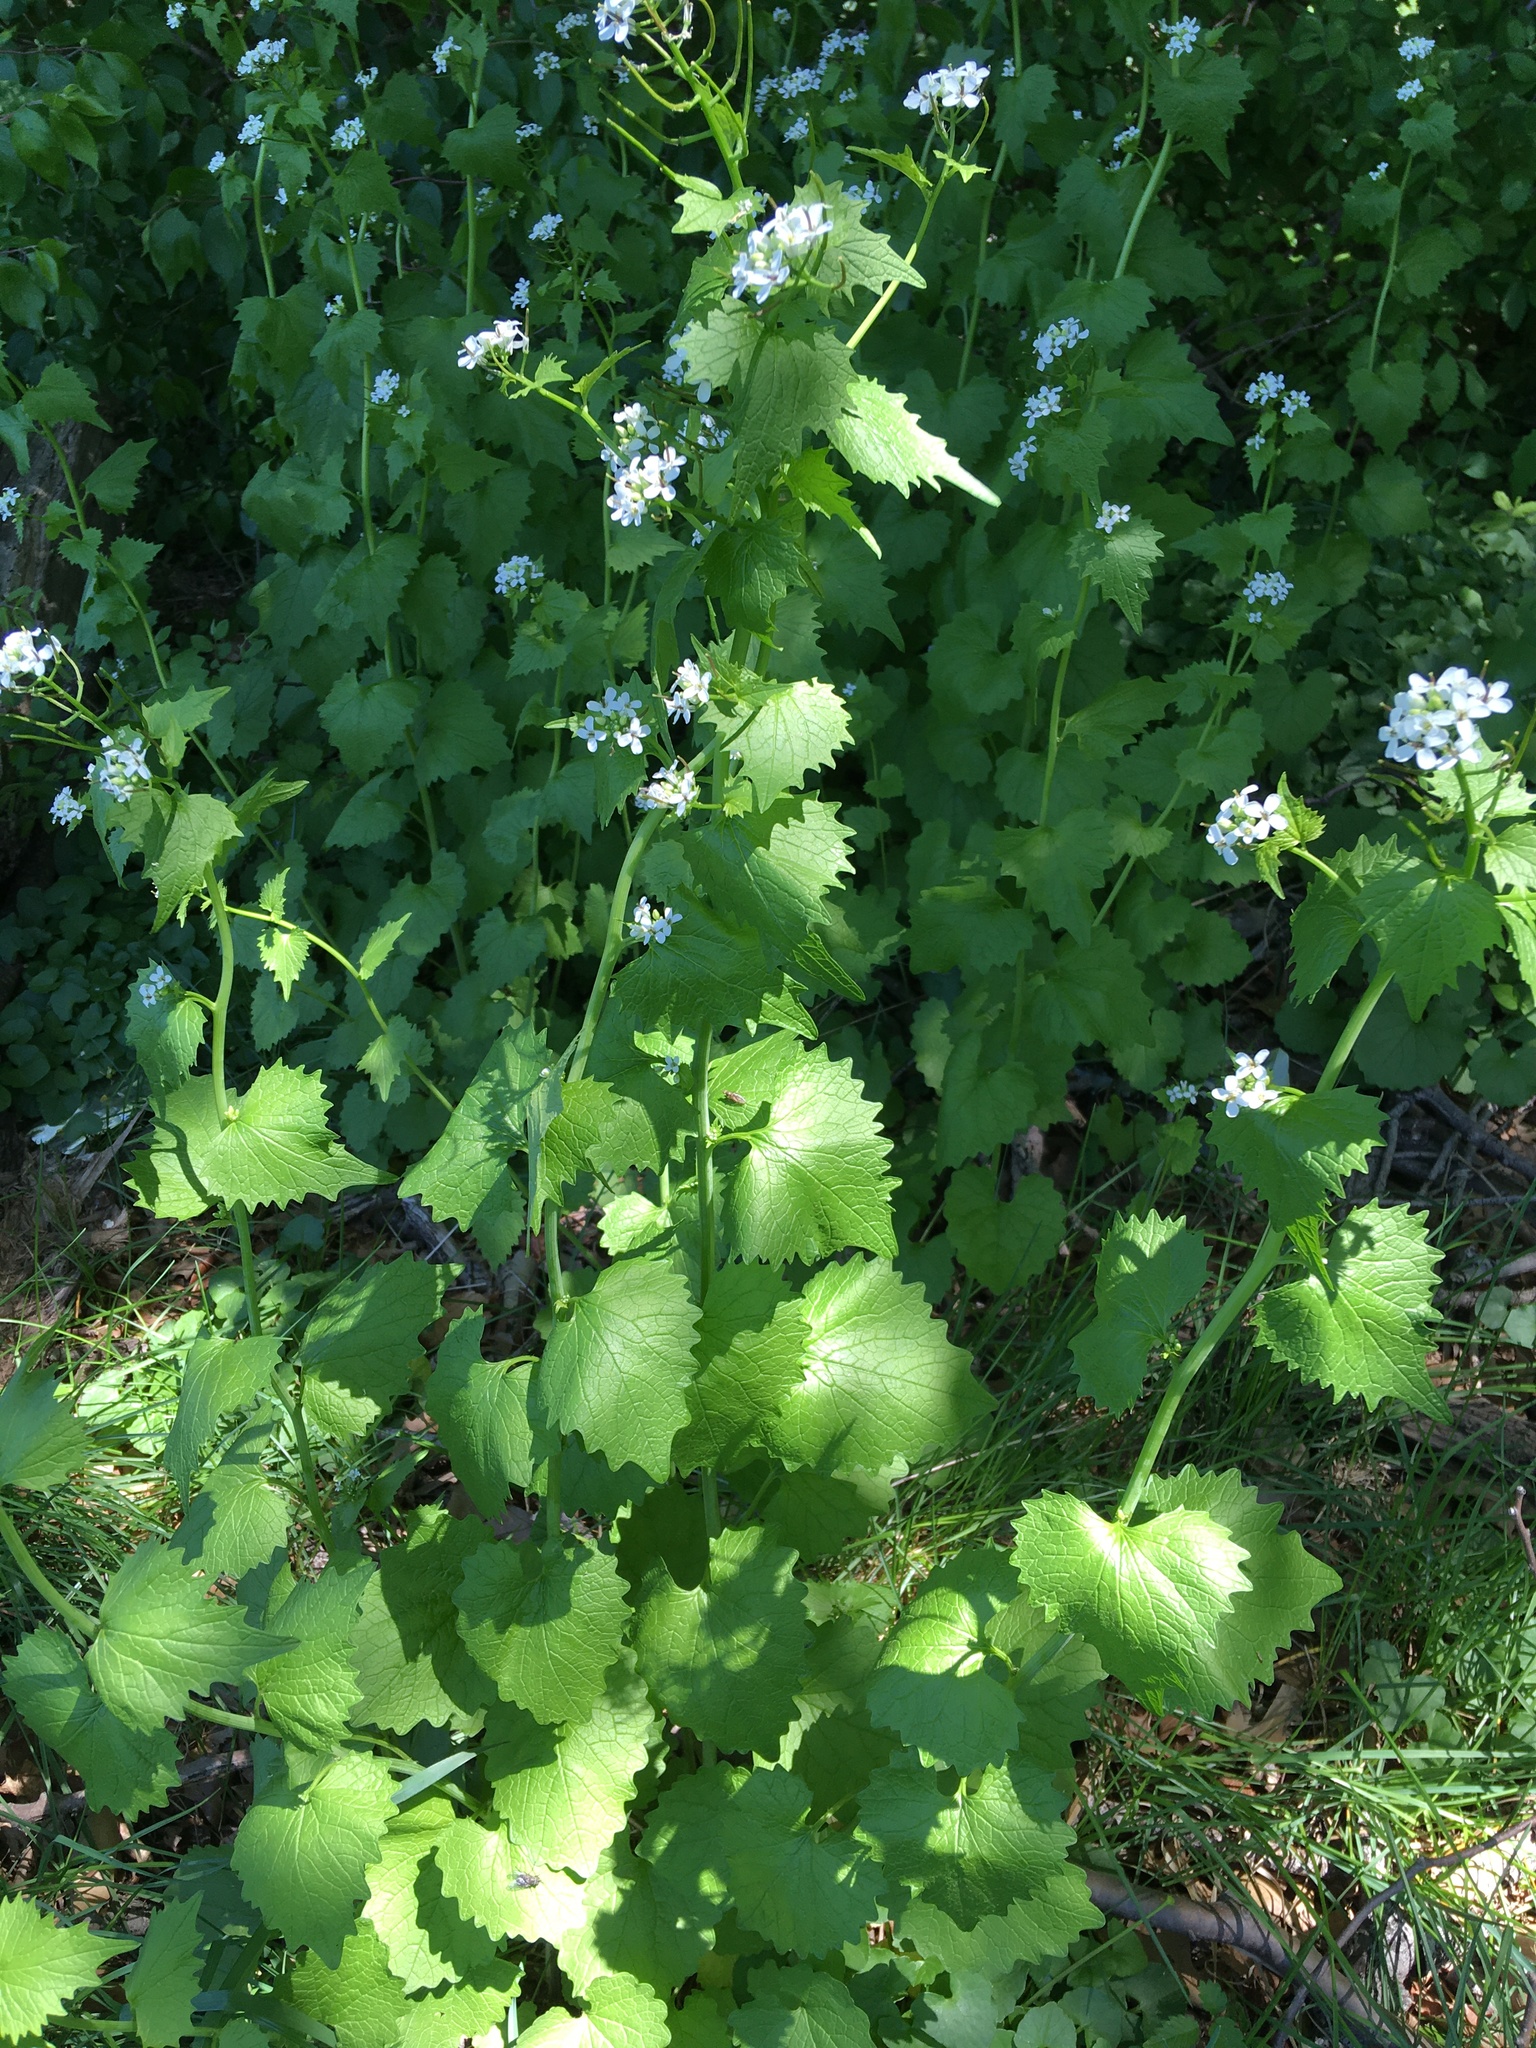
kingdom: Plantae
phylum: Tracheophyta
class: Magnoliopsida
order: Brassicales
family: Brassicaceae
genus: Alliaria
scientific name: Alliaria petiolata
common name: Garlic mustard
